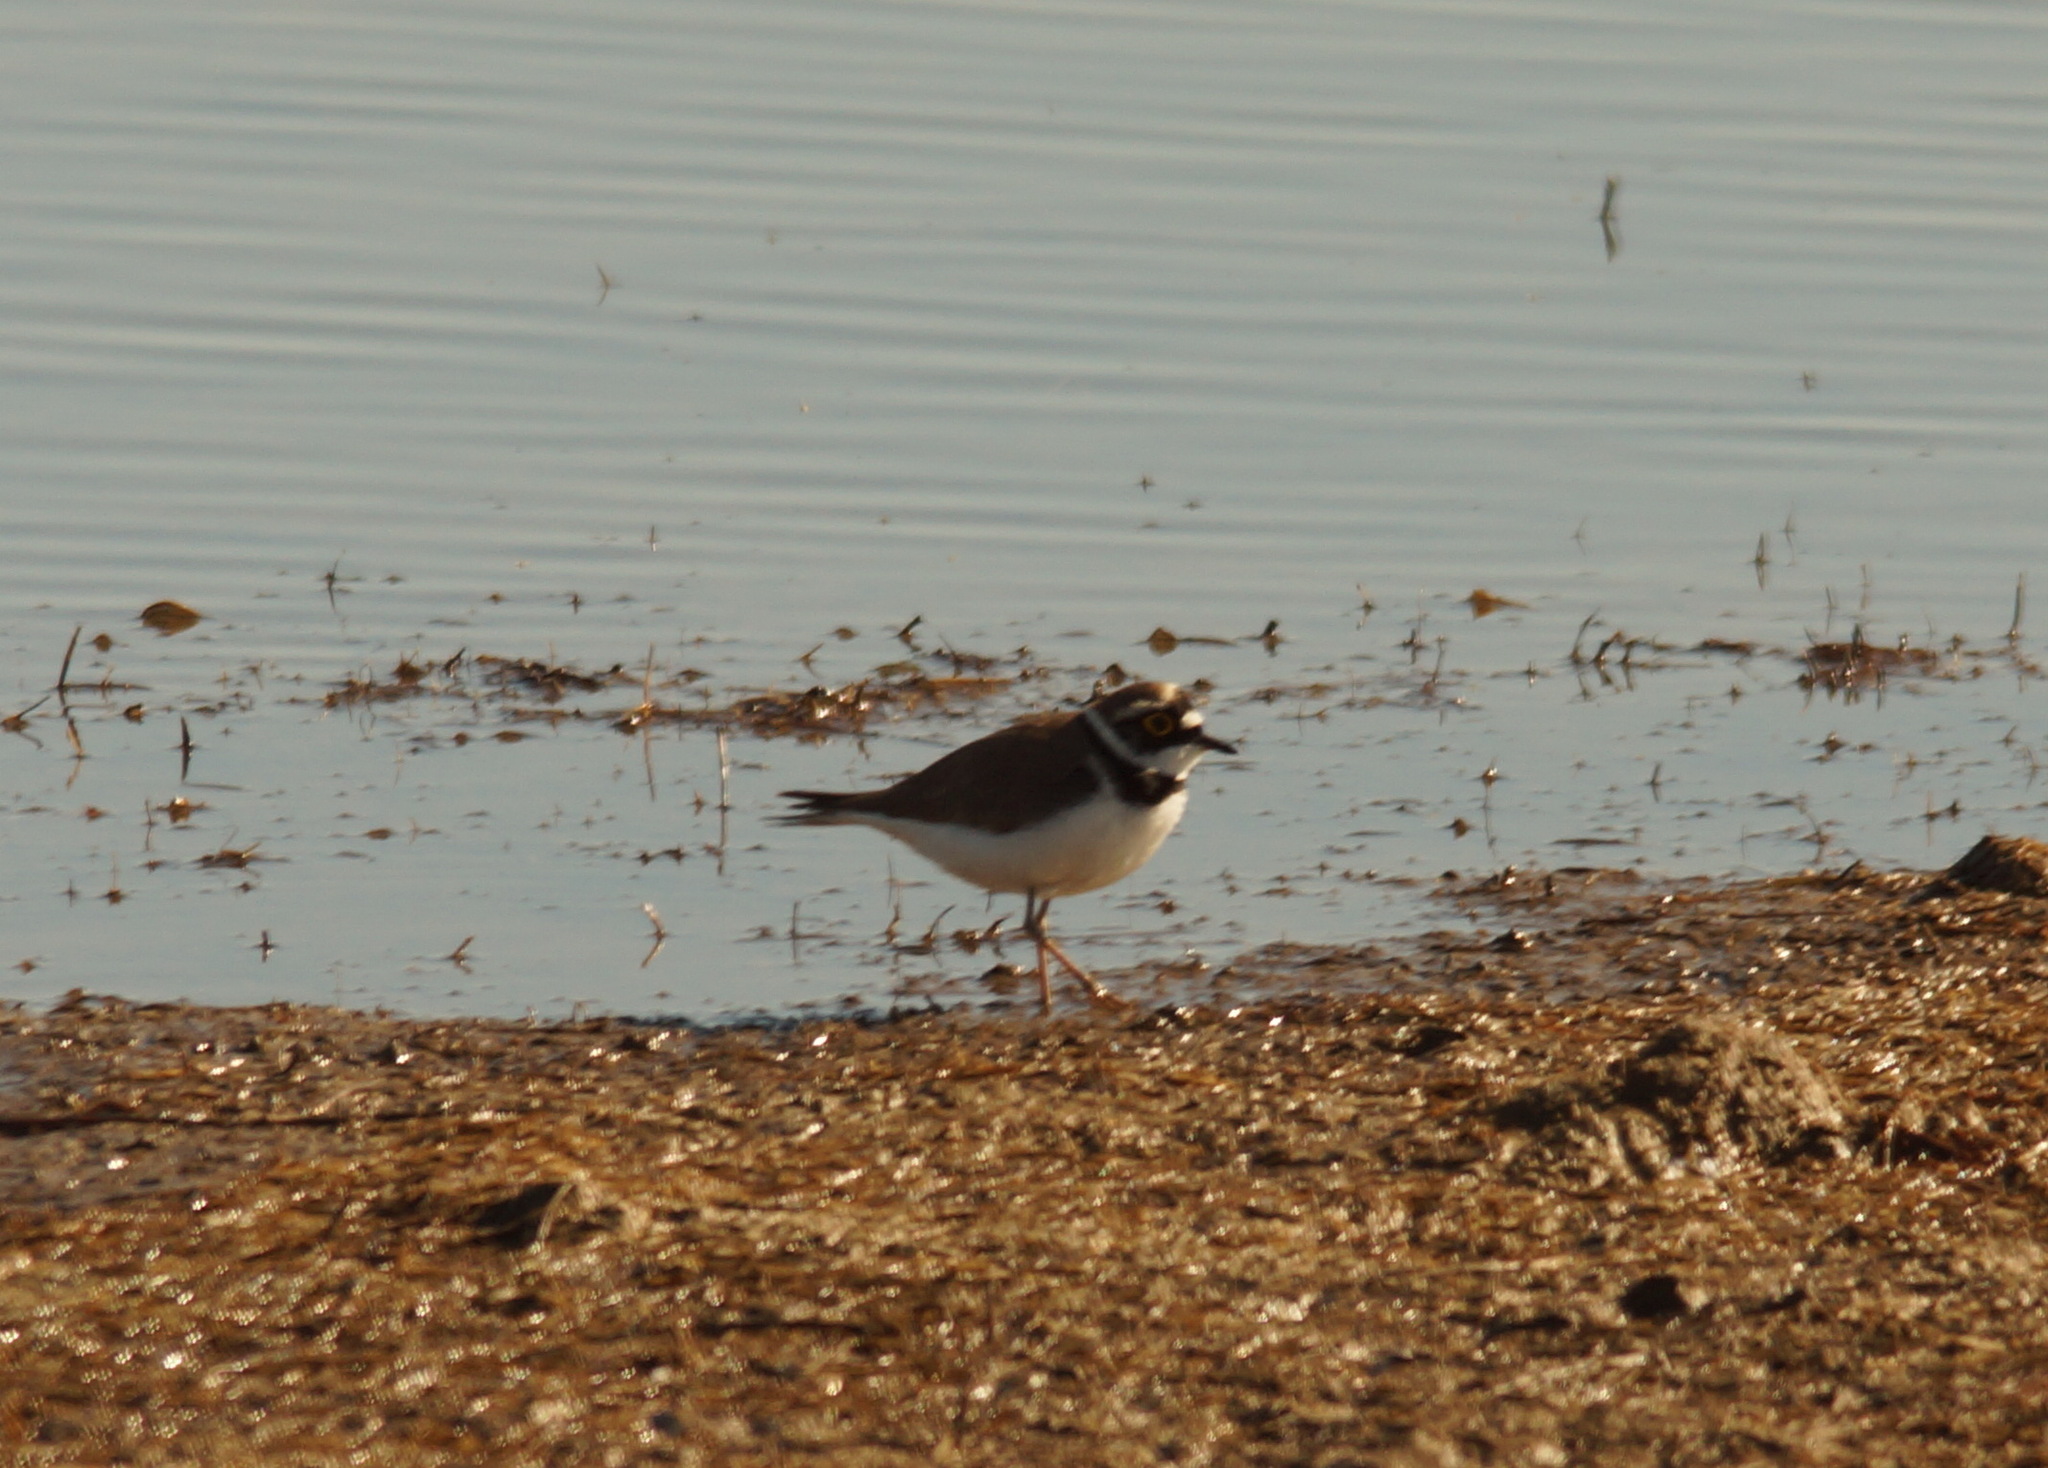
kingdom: Animalia
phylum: Chordata
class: Aves
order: Charadriiformes
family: Charadriidae
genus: Charadrius
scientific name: Charadrius dubius
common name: Little ringed plover
